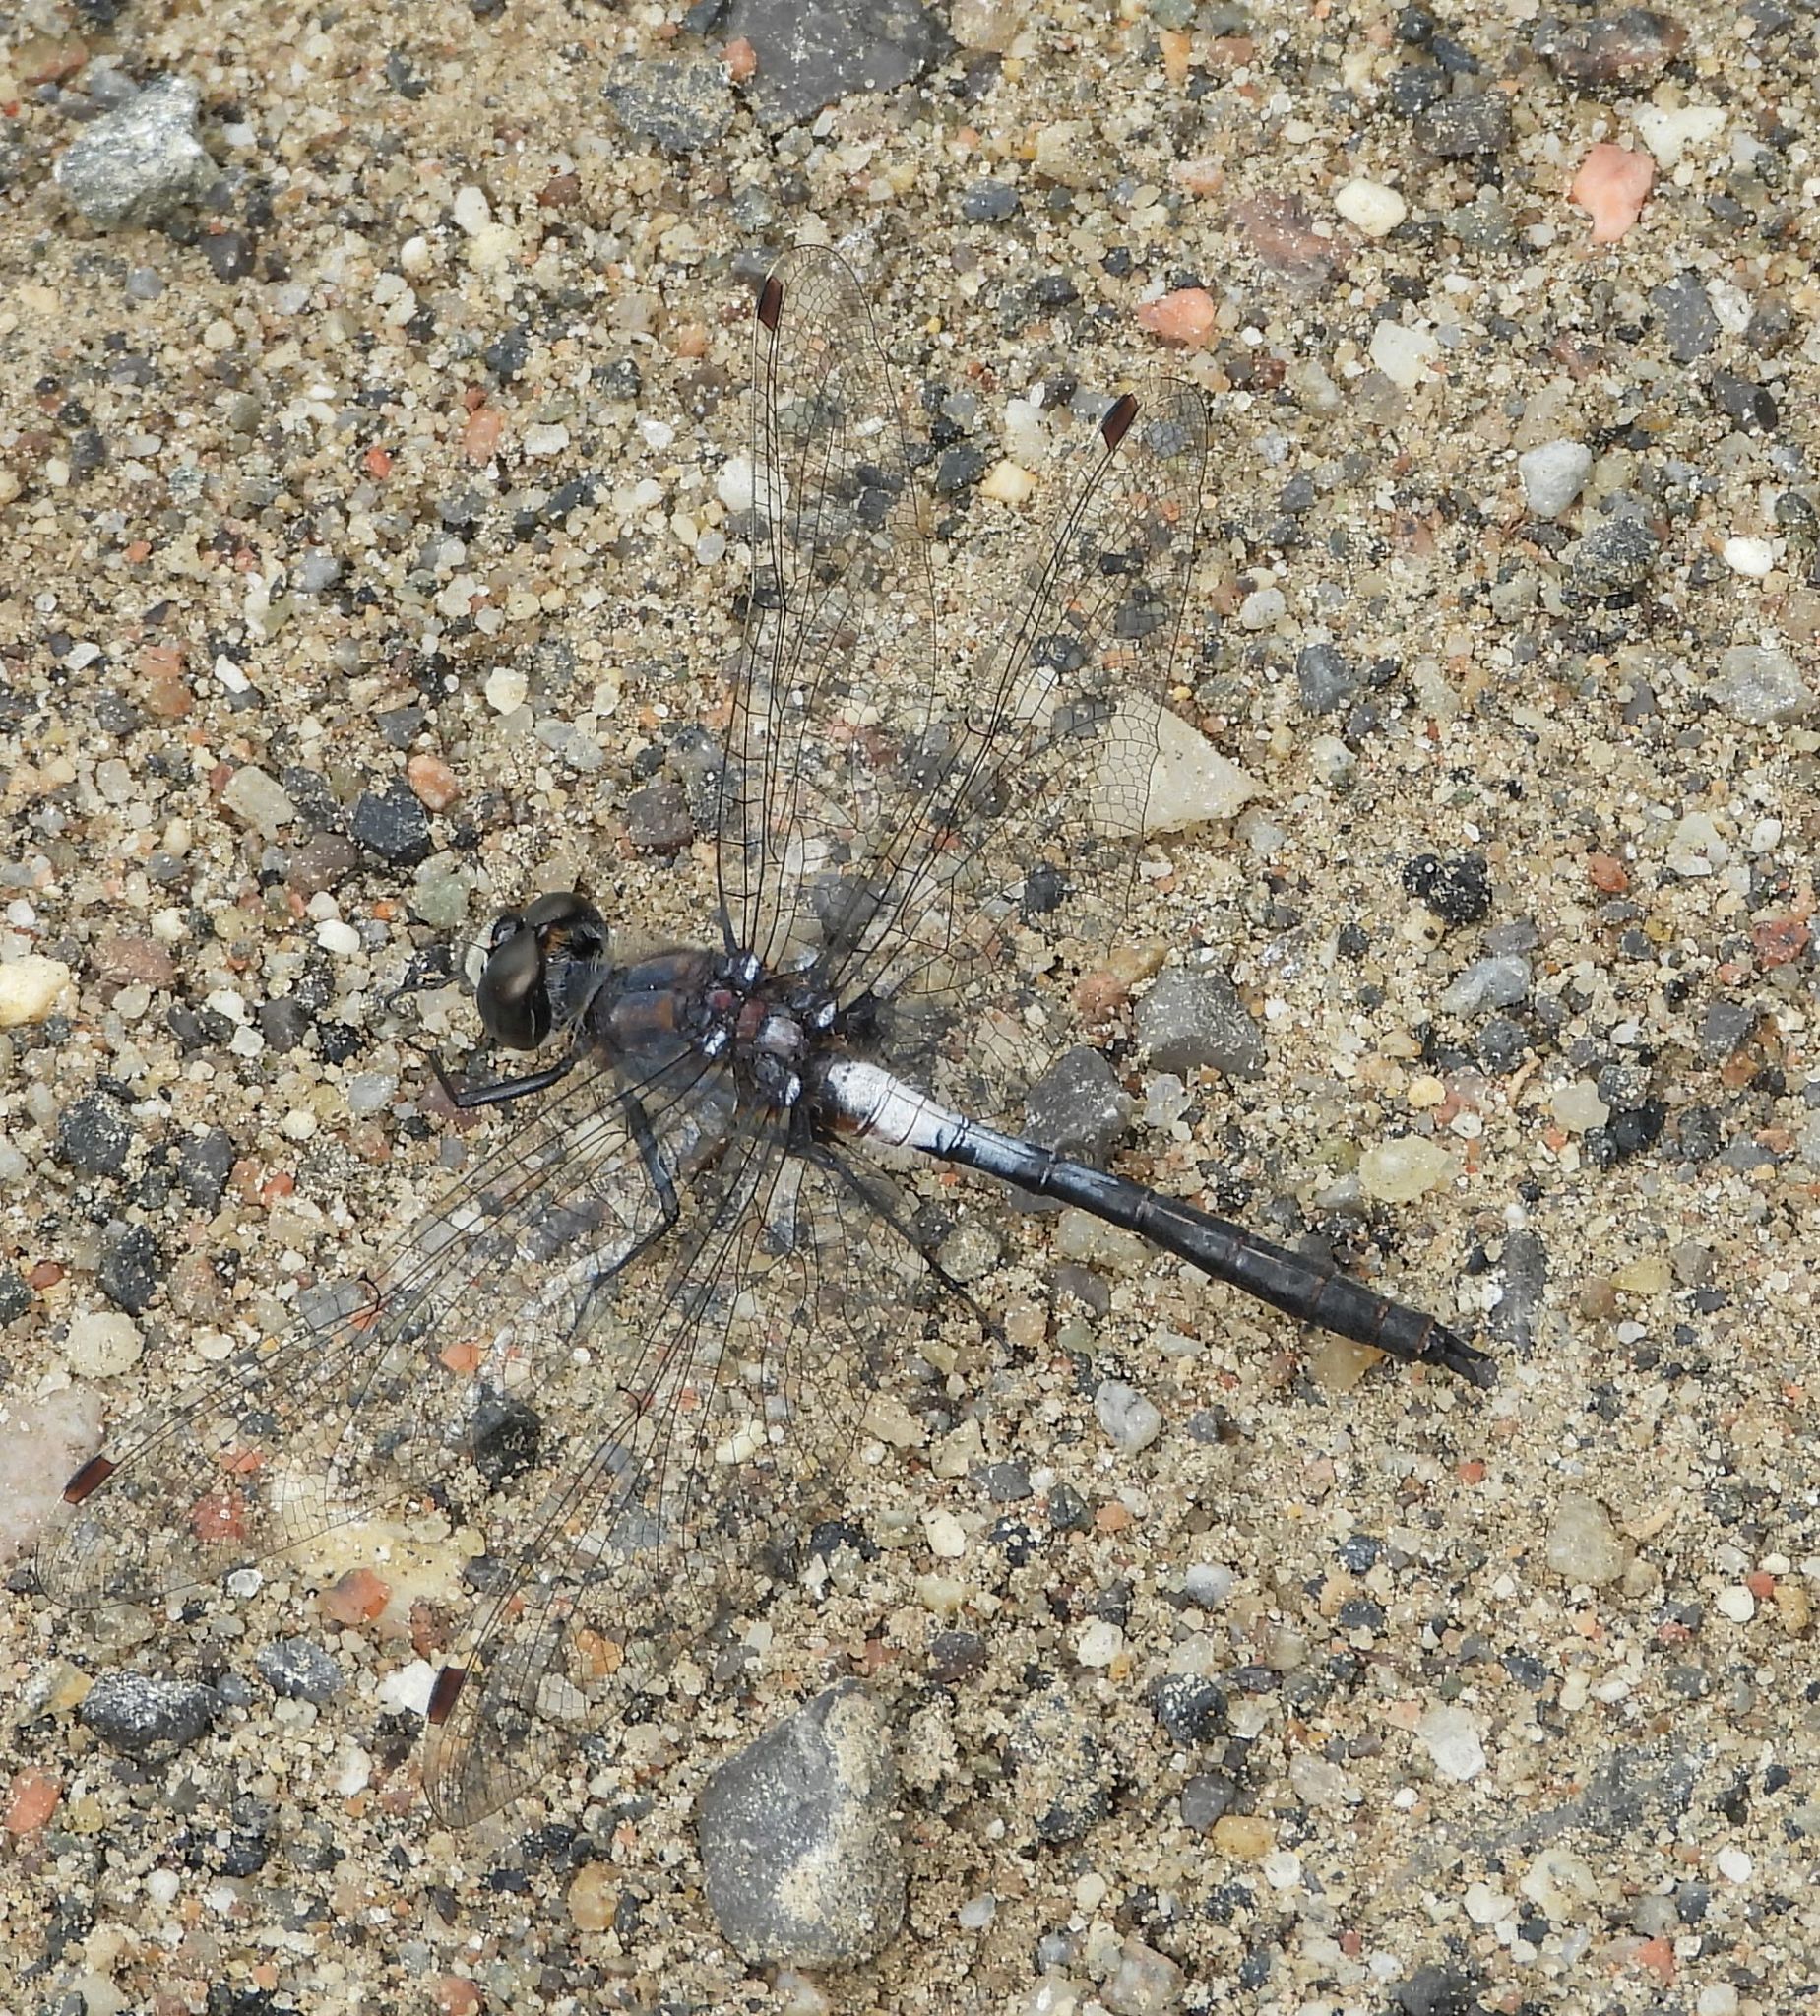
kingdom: Animalia
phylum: Arthropoda
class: Insecta
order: Odonata
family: Libellulidae
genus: Leucorrhinia
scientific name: Leucorrhinia proxima
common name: Belted whiteface
